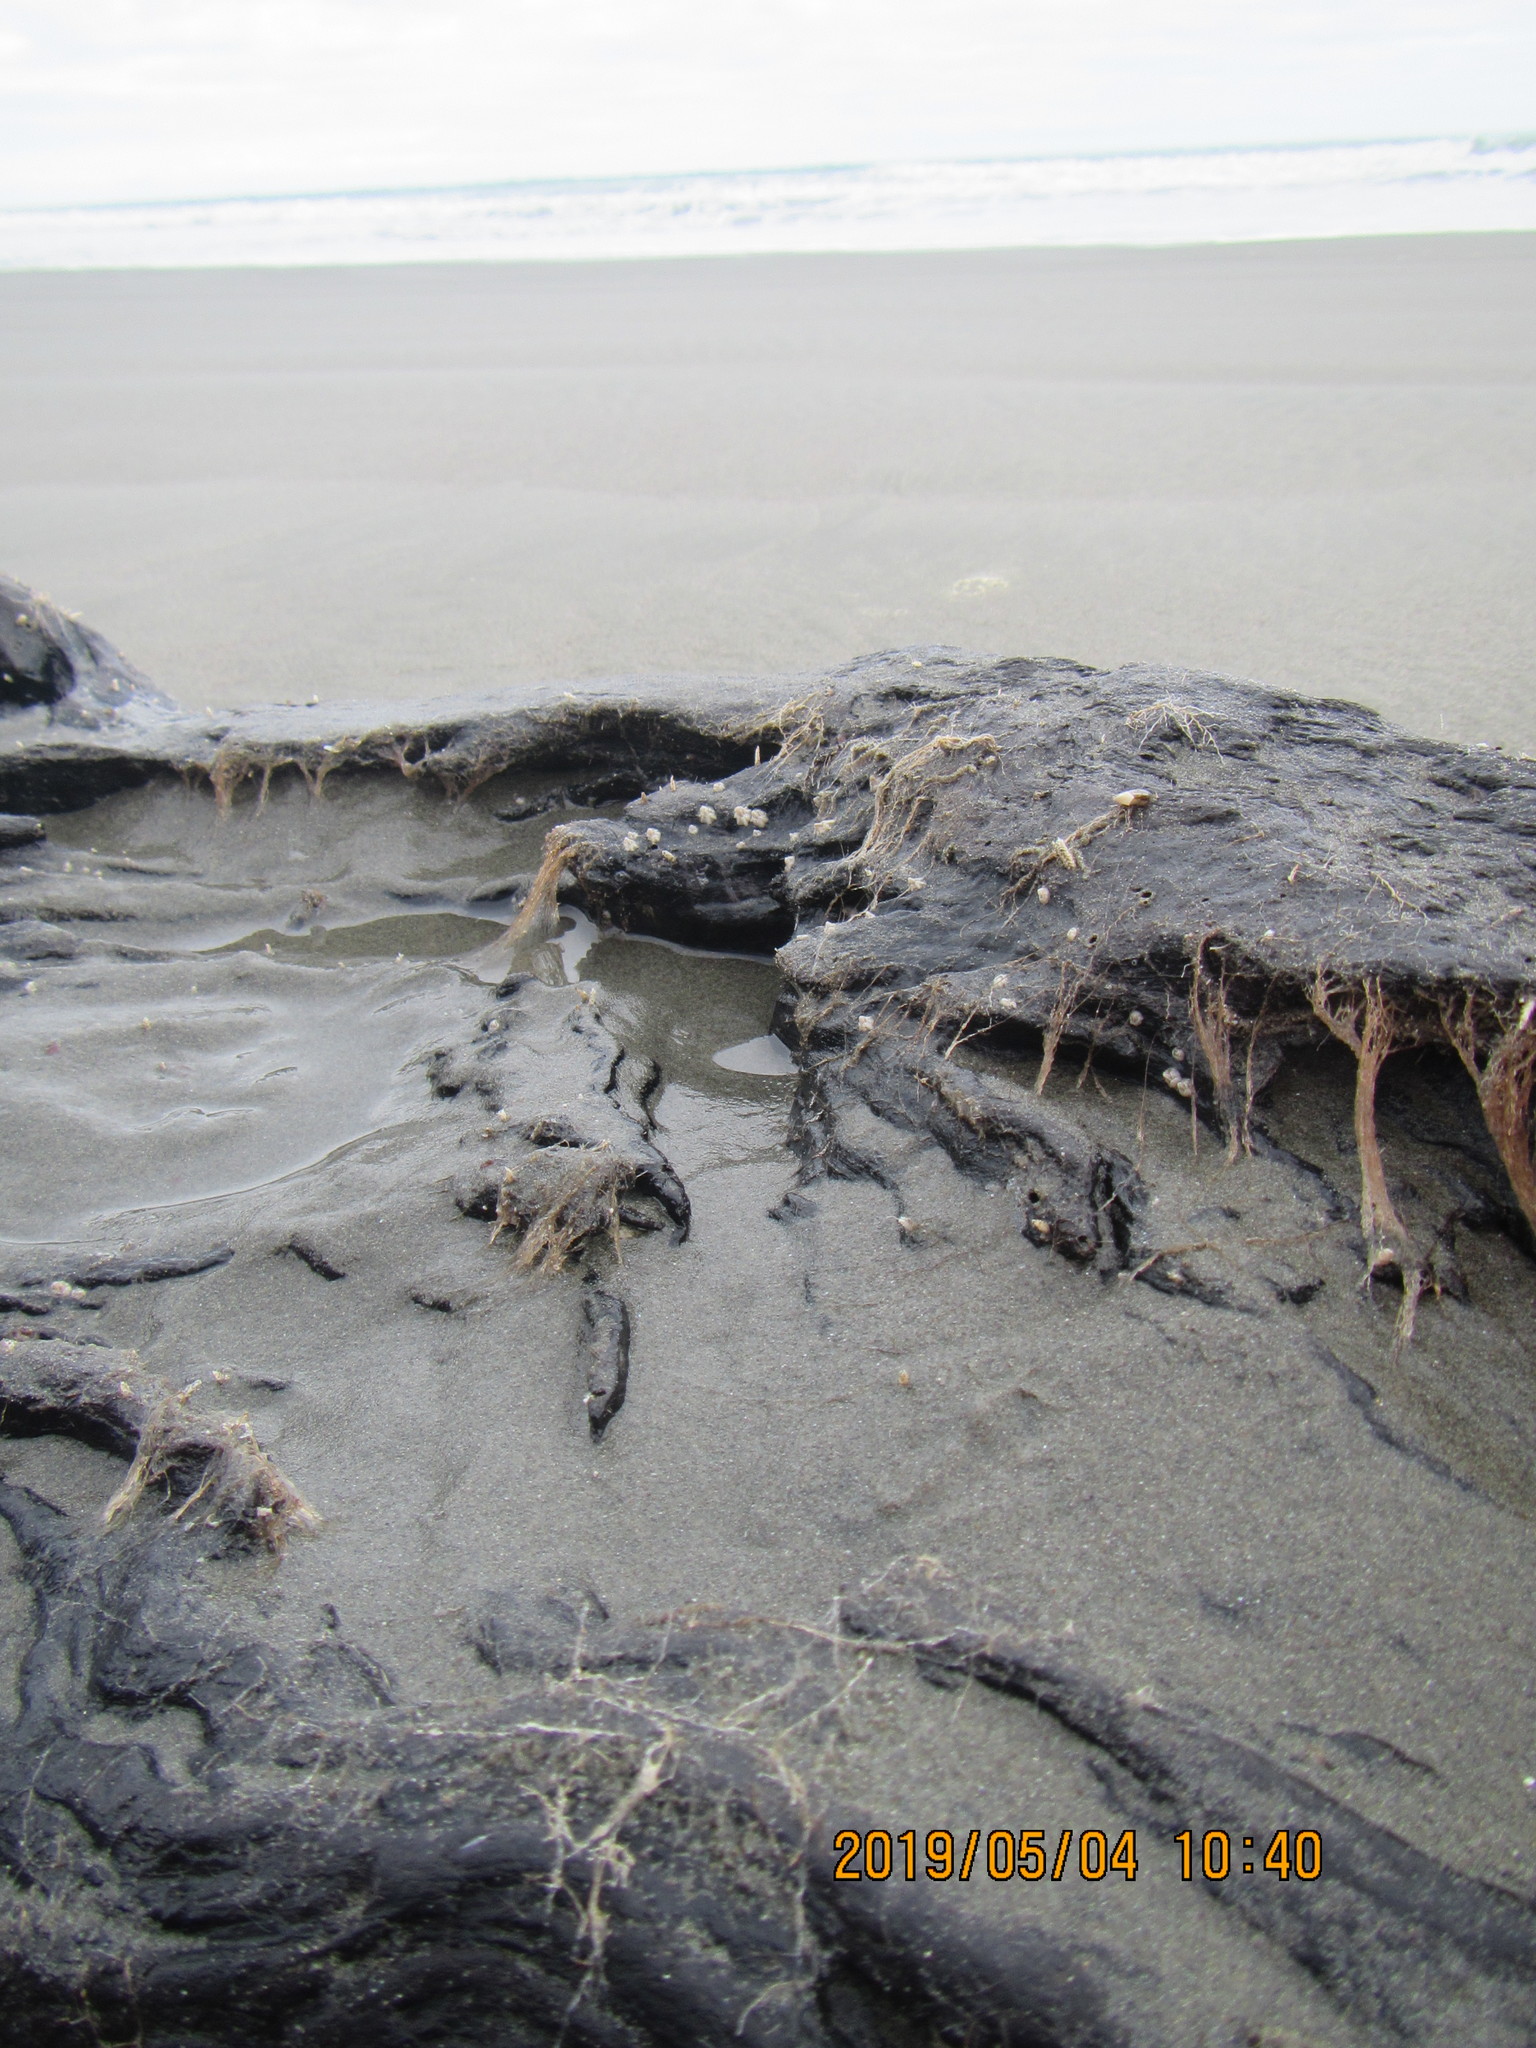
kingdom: Animalia
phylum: Arthropoda
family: Elminiidae
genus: Austrominius
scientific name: Austrominius modestus
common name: Australasian barnacle
